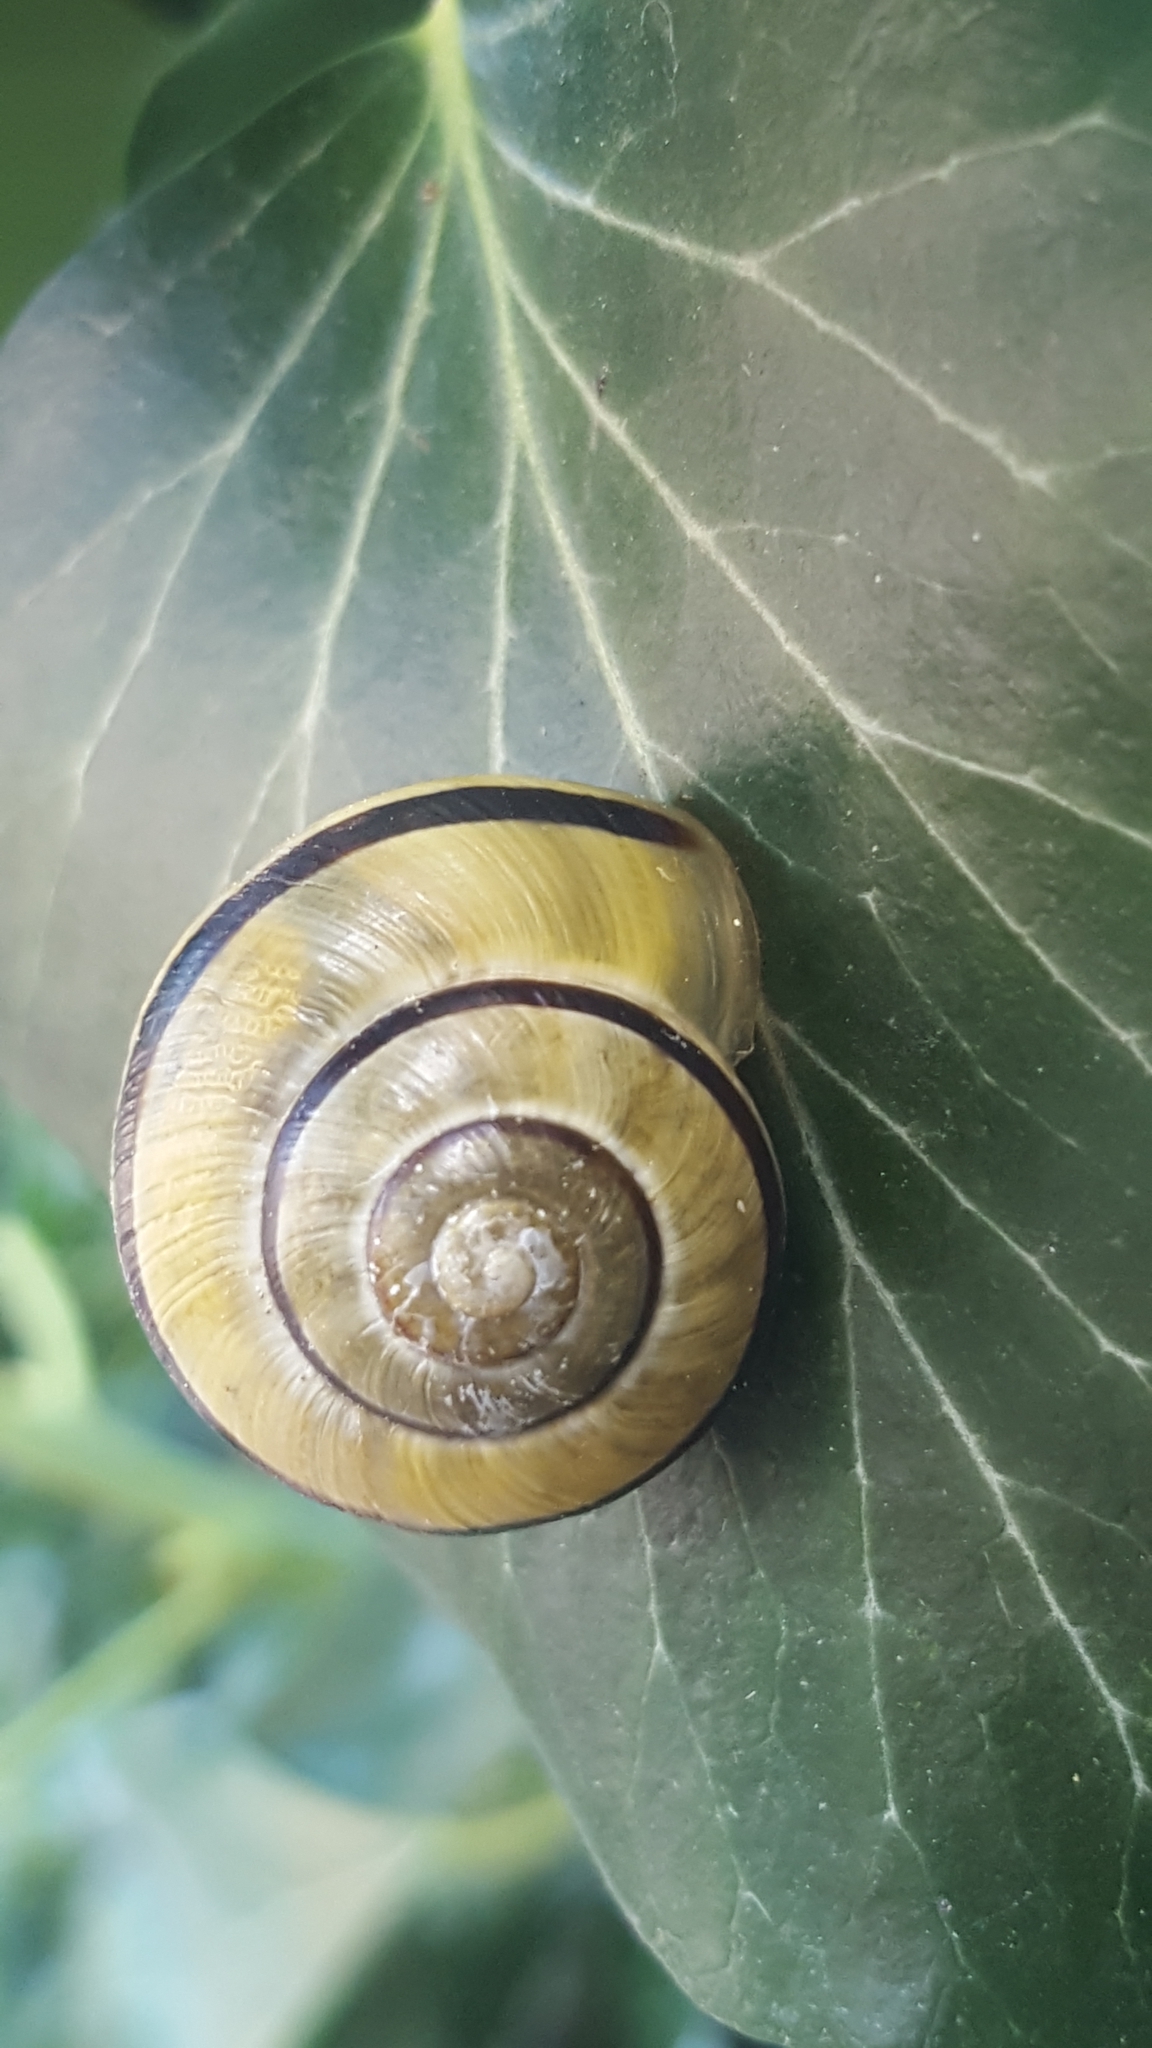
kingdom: Animalia
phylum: Mollusca
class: Gastropoda
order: Stylommatophora
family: Helicidae
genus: Cepaea
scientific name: Cepaea
